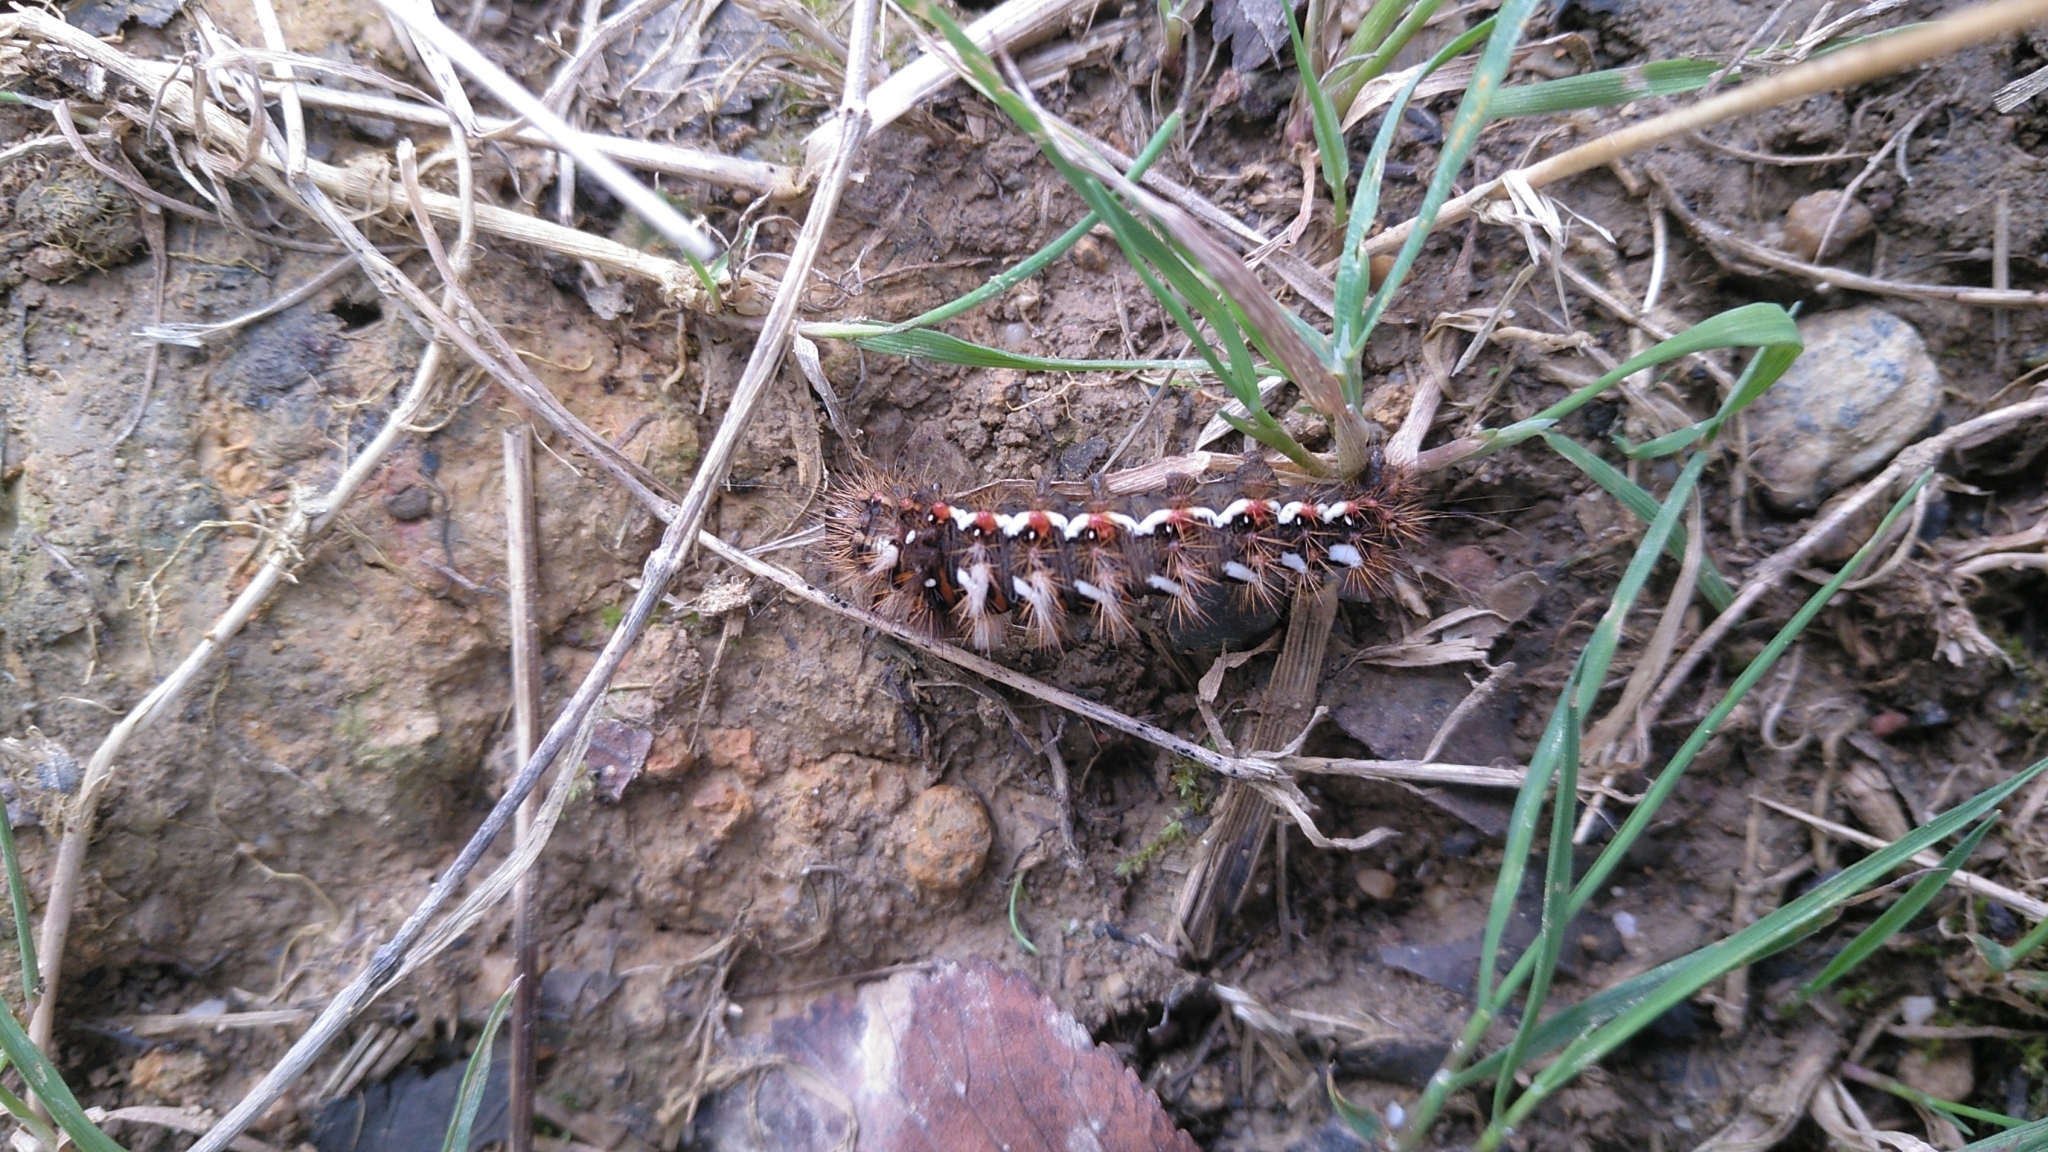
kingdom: Animalia
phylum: Arthropoda
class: Insecta
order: Lepidoptera
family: Noctuidae
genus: Acronicta
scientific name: Acronicta rumicis
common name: Knot grass
